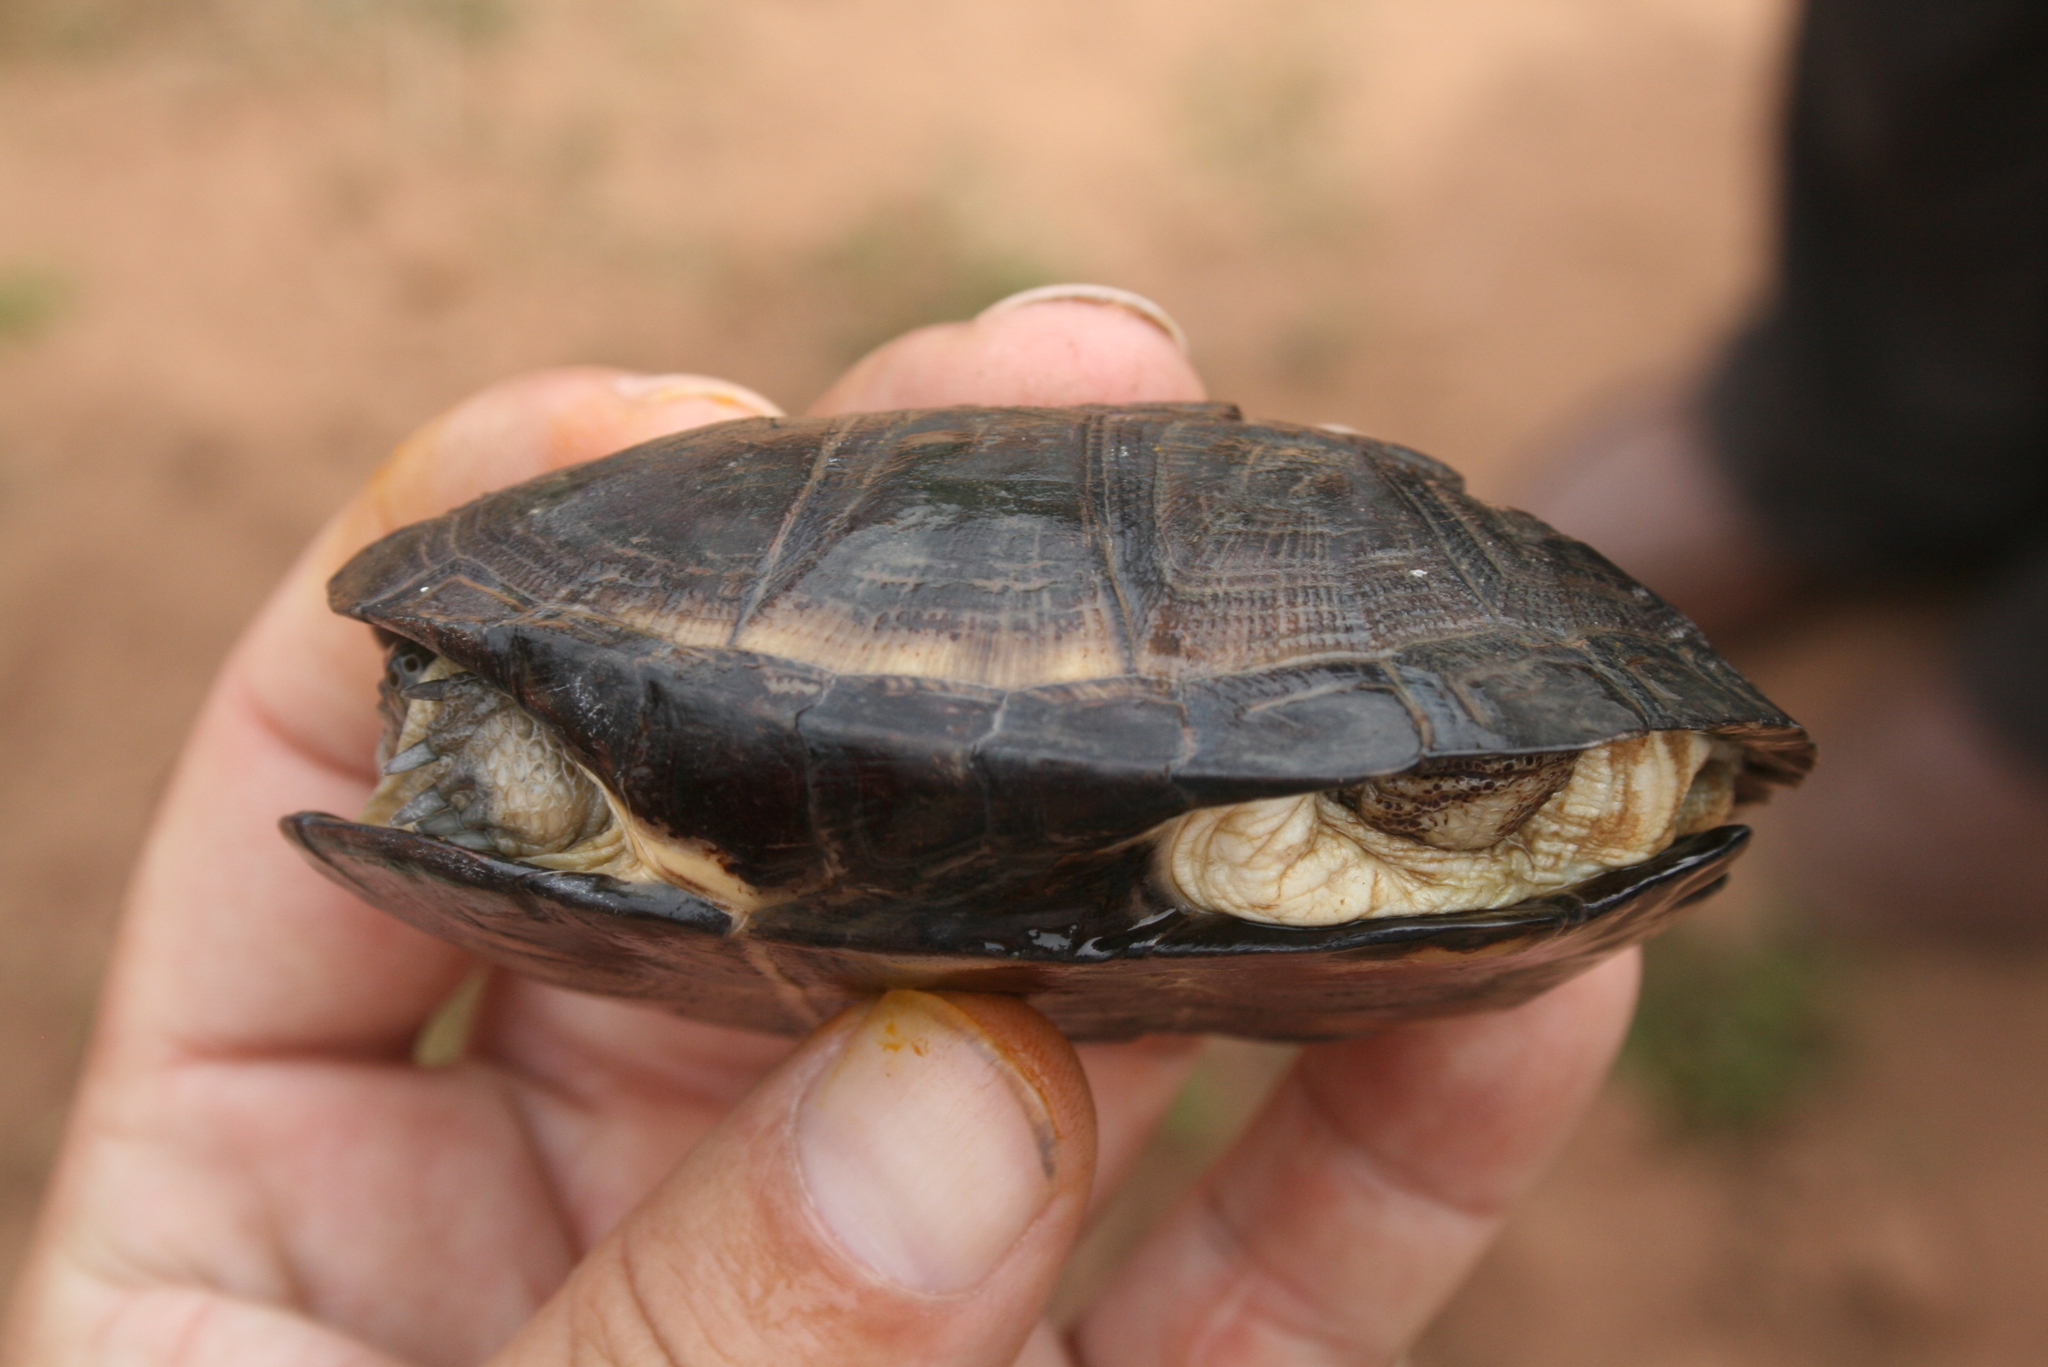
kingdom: Animalia
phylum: Chordata
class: Testudines
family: Pelomedusidae
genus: Pelusios
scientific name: Pelusios castaneus
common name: West african mud turtle
